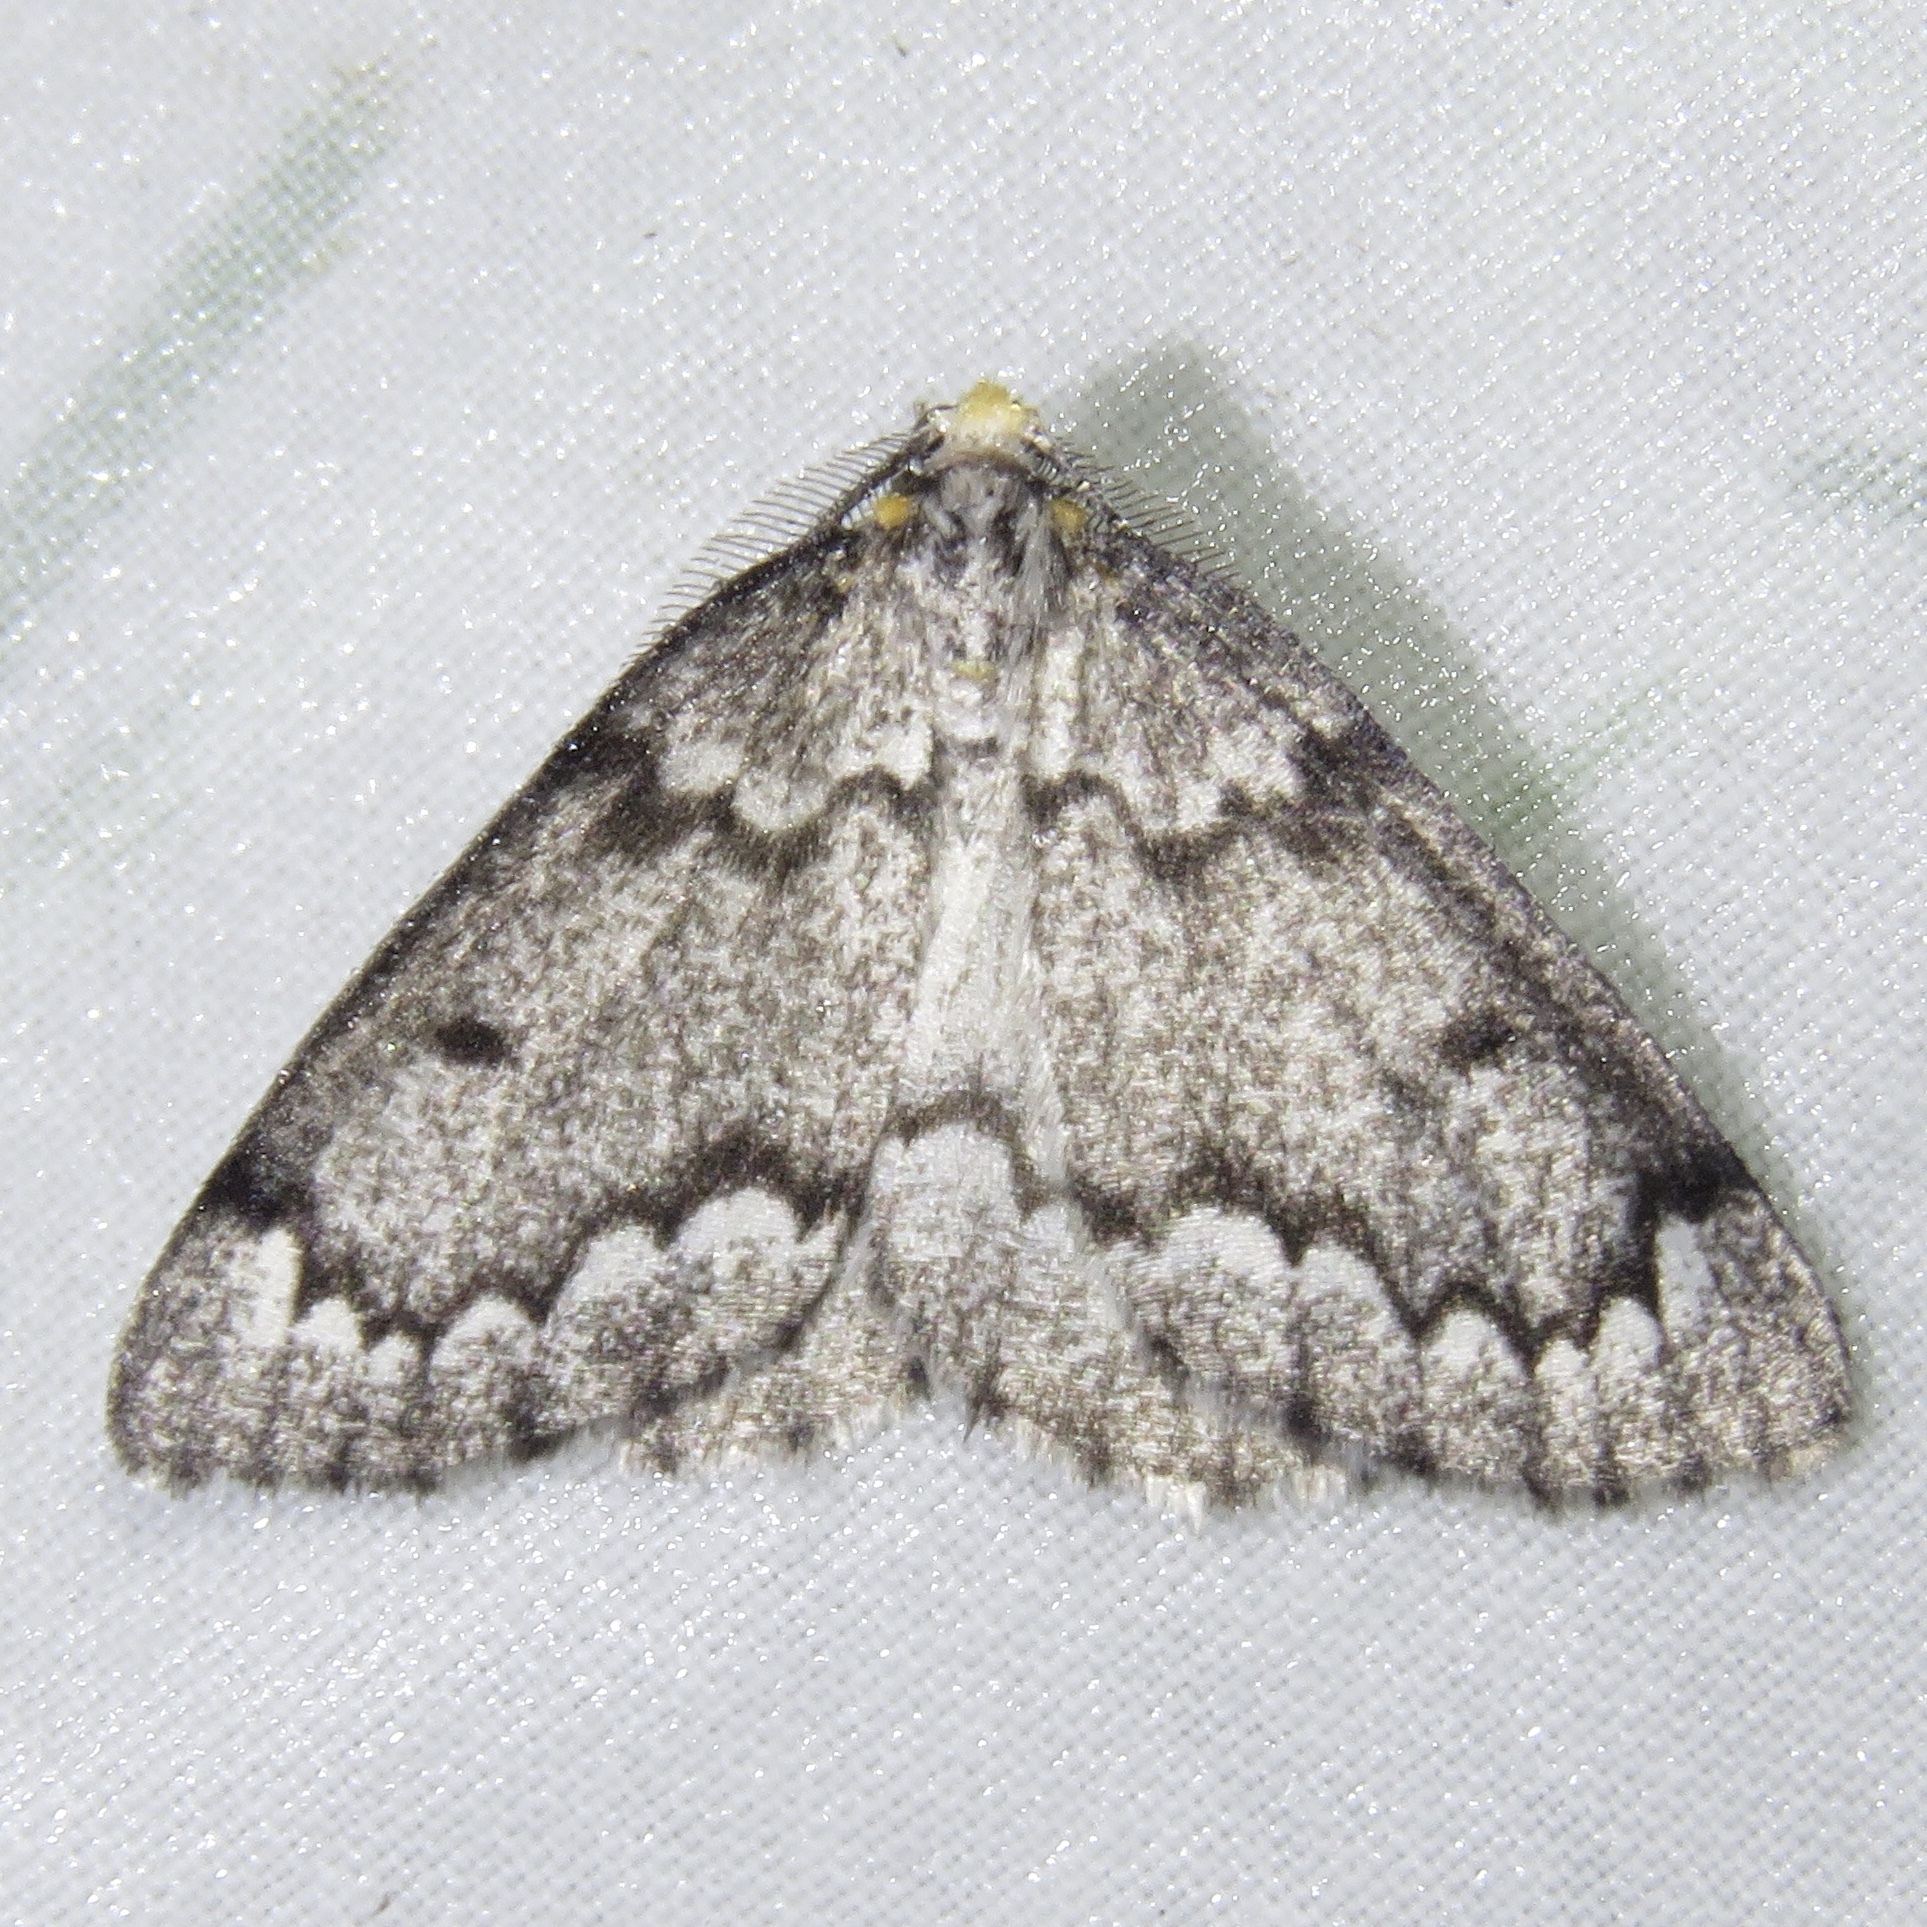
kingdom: Animalia
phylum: Arthropoda
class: Insecta
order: Lepidoptera
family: Geometridae
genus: Nepytia
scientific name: Nepytia canosaria
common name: False hemlock looper
